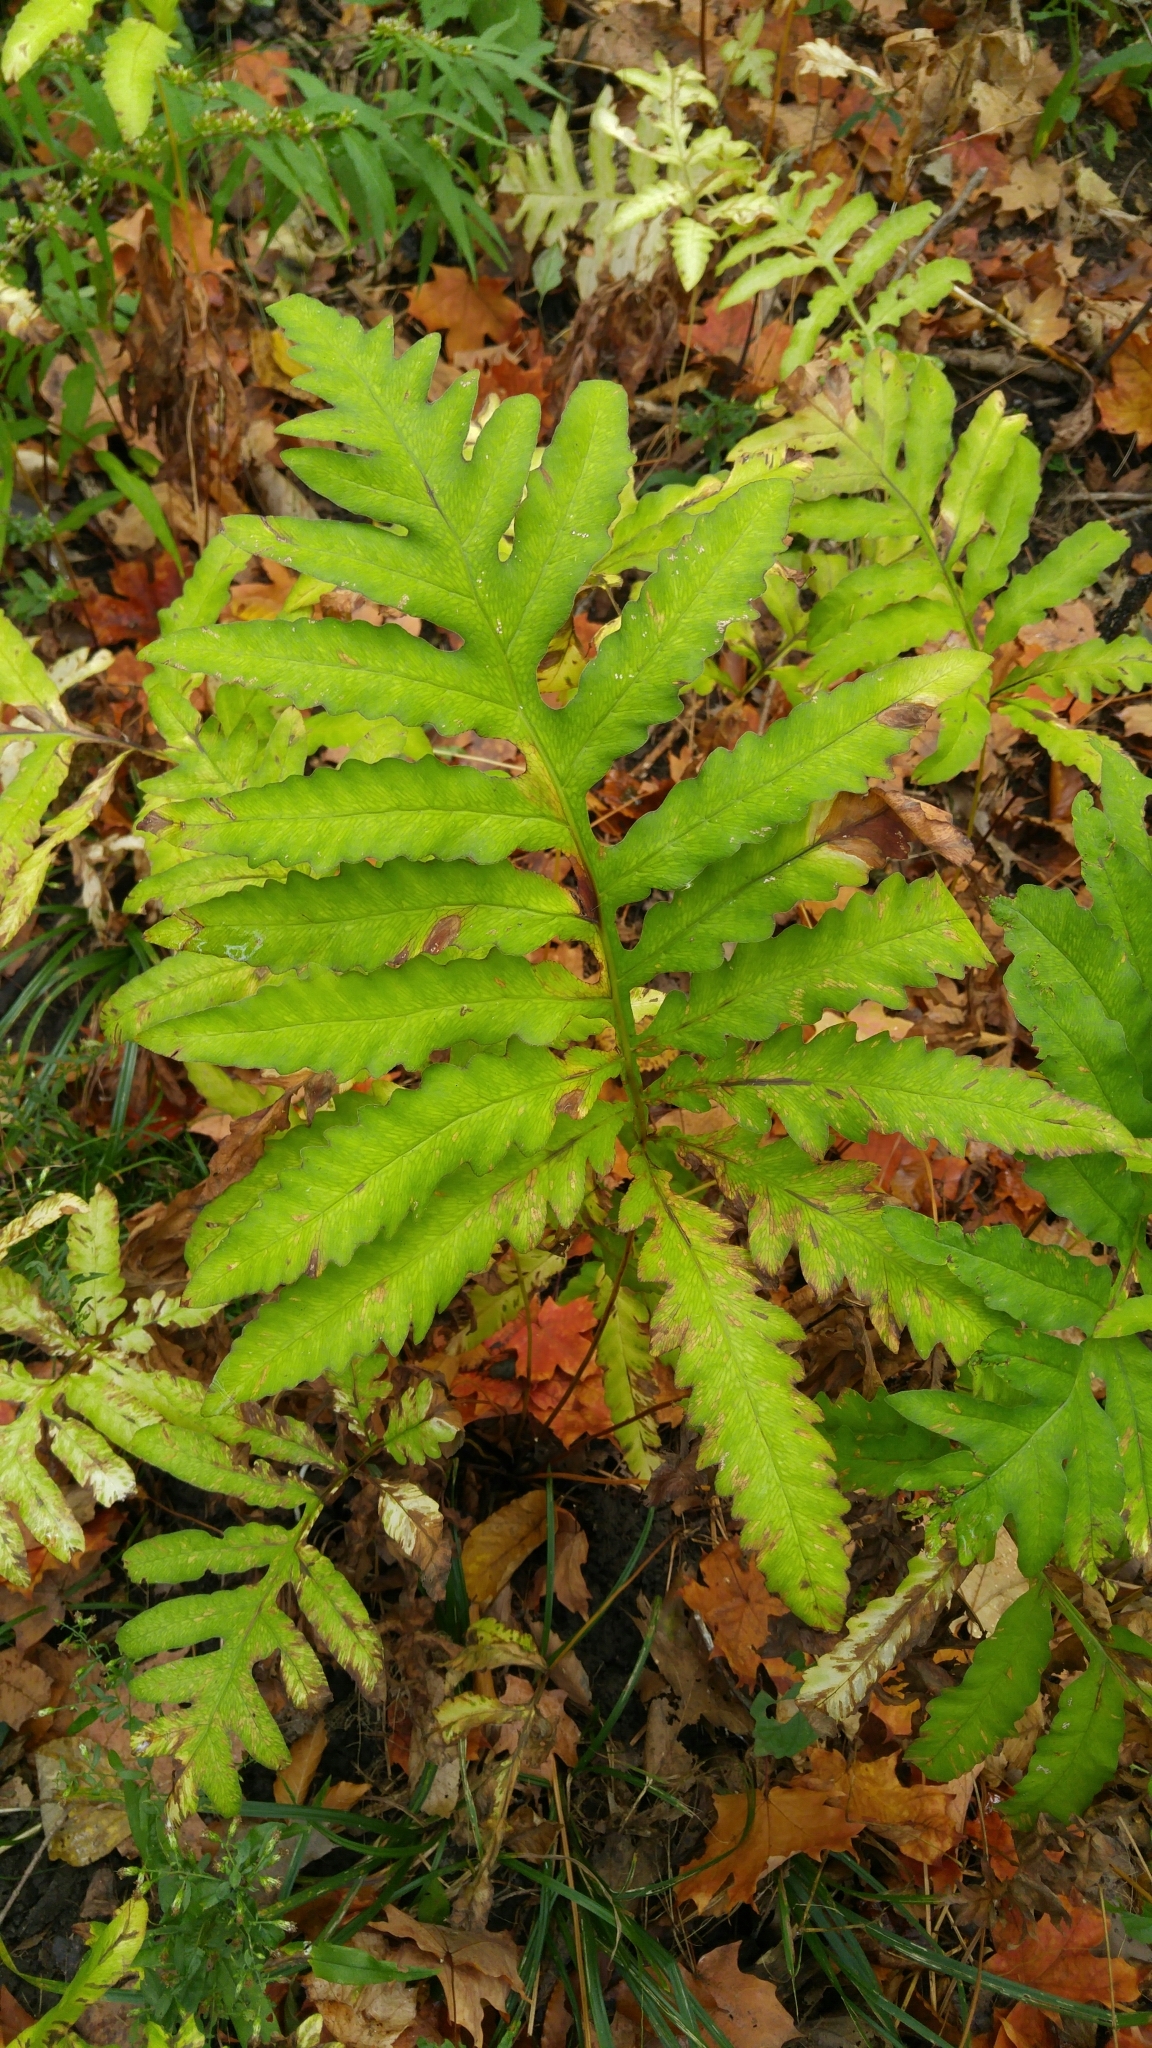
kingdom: Plantae
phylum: Tracheophyta
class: Polypodiopsida
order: Polypodiales
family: Onocleaceae
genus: Onoclea
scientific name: Onoclea sensibilis
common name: Sensitive fern
